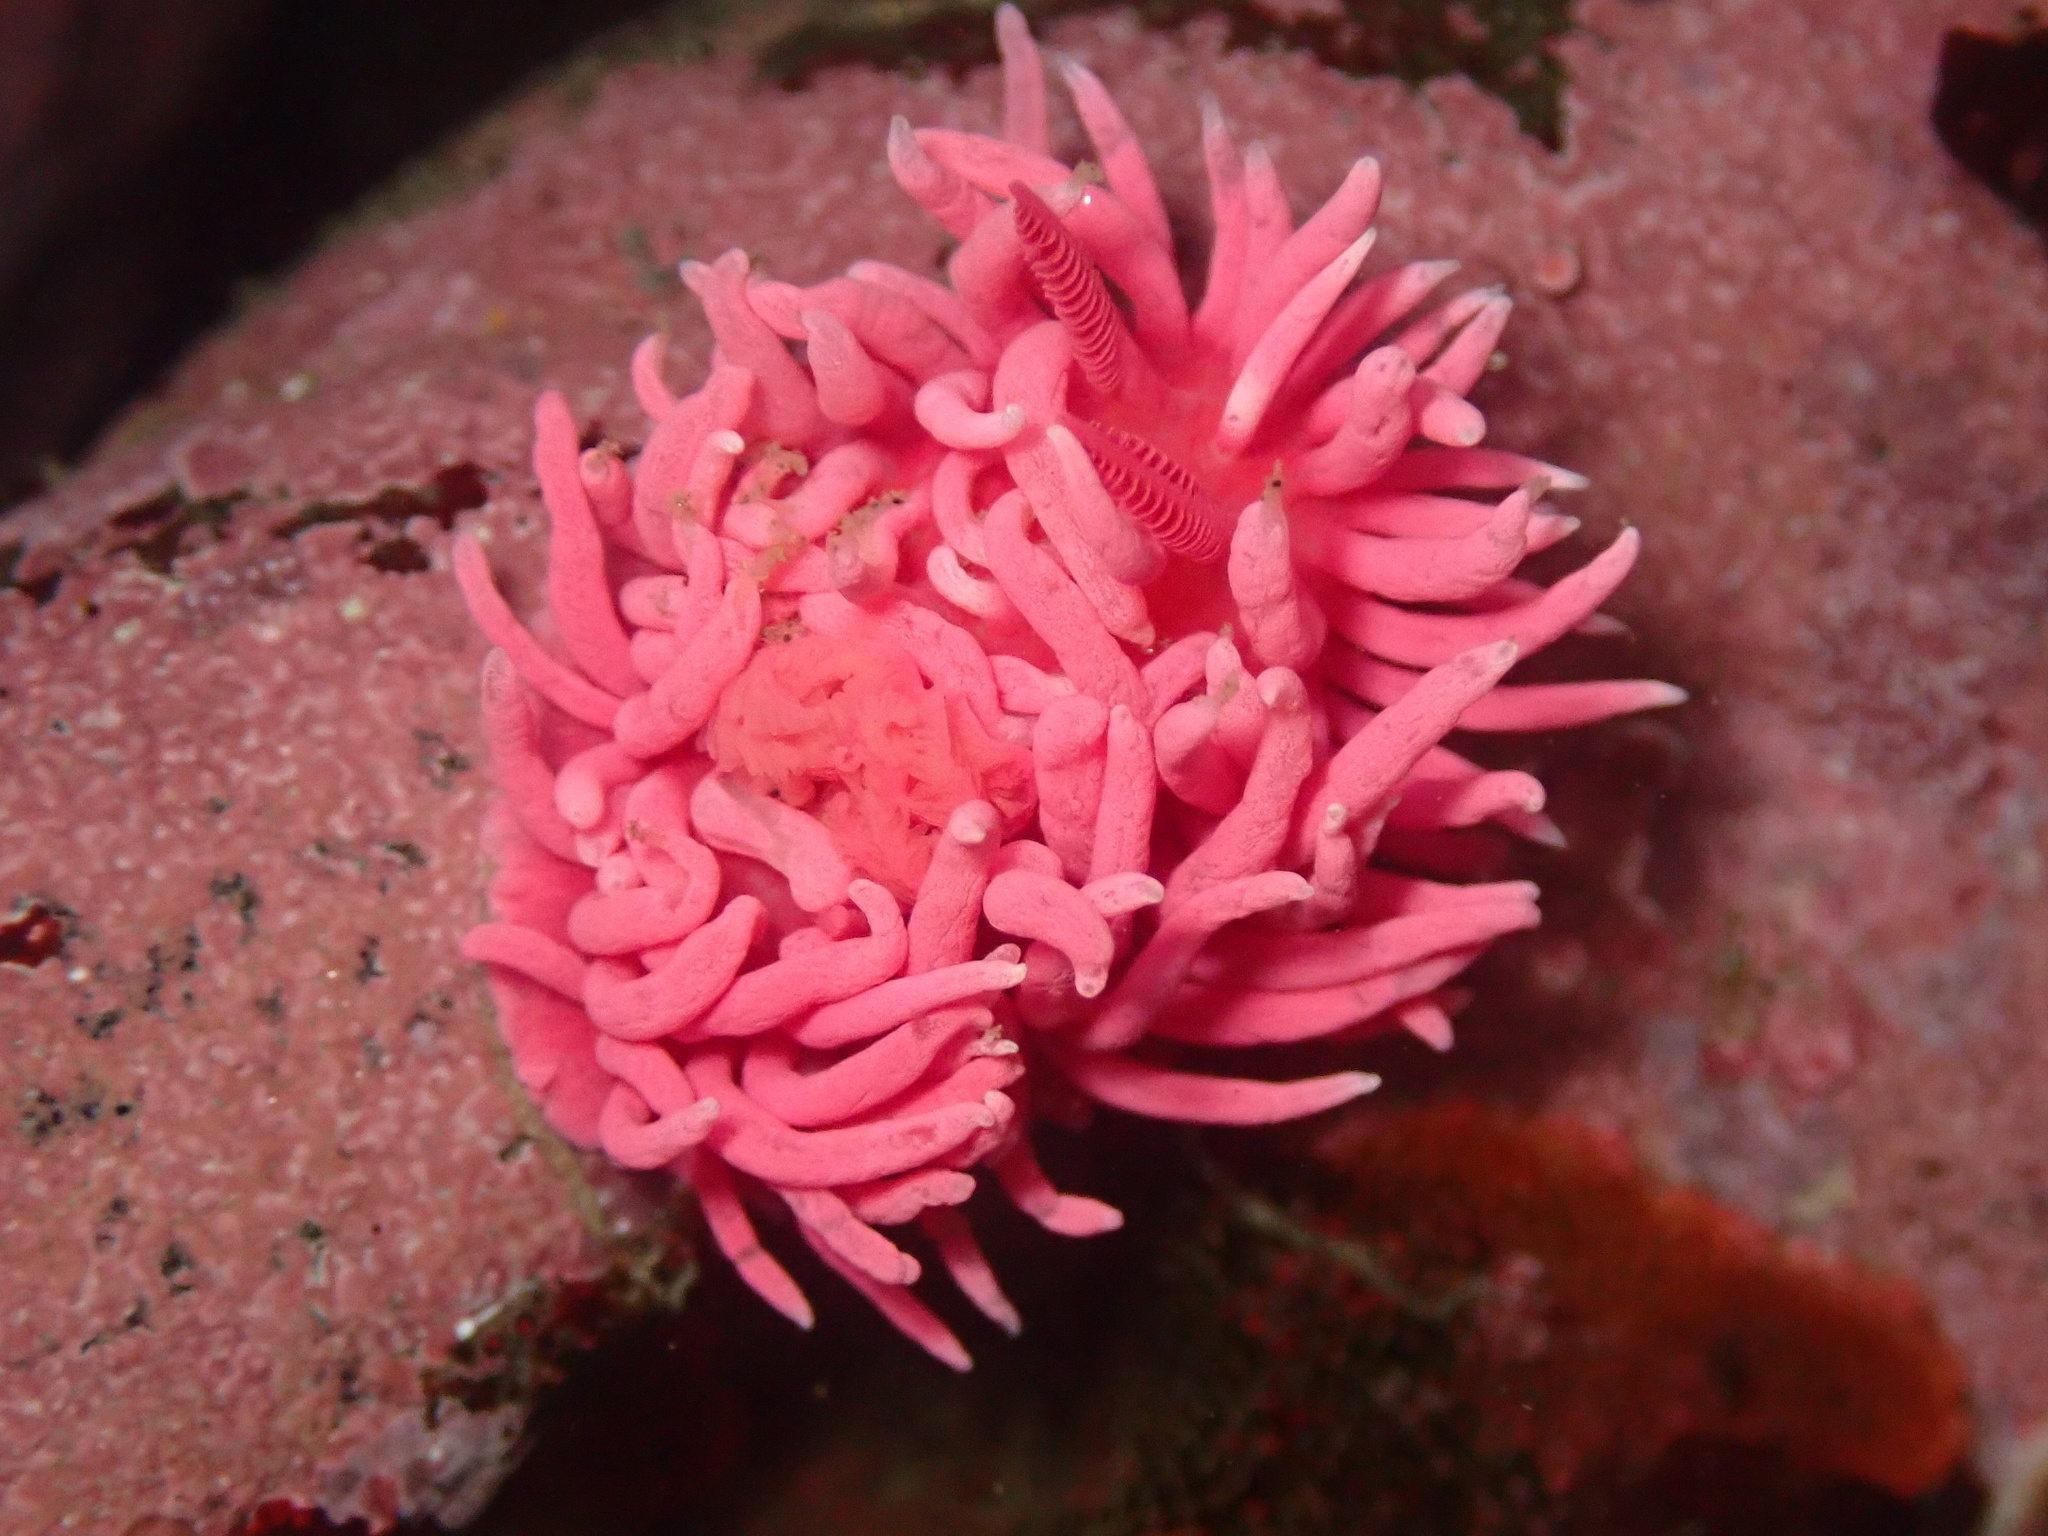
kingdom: Animalia
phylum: Mollusca
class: Gastropoda
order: Nudibranchia
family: Goniodorididae
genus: Okenia
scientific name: Okenia
